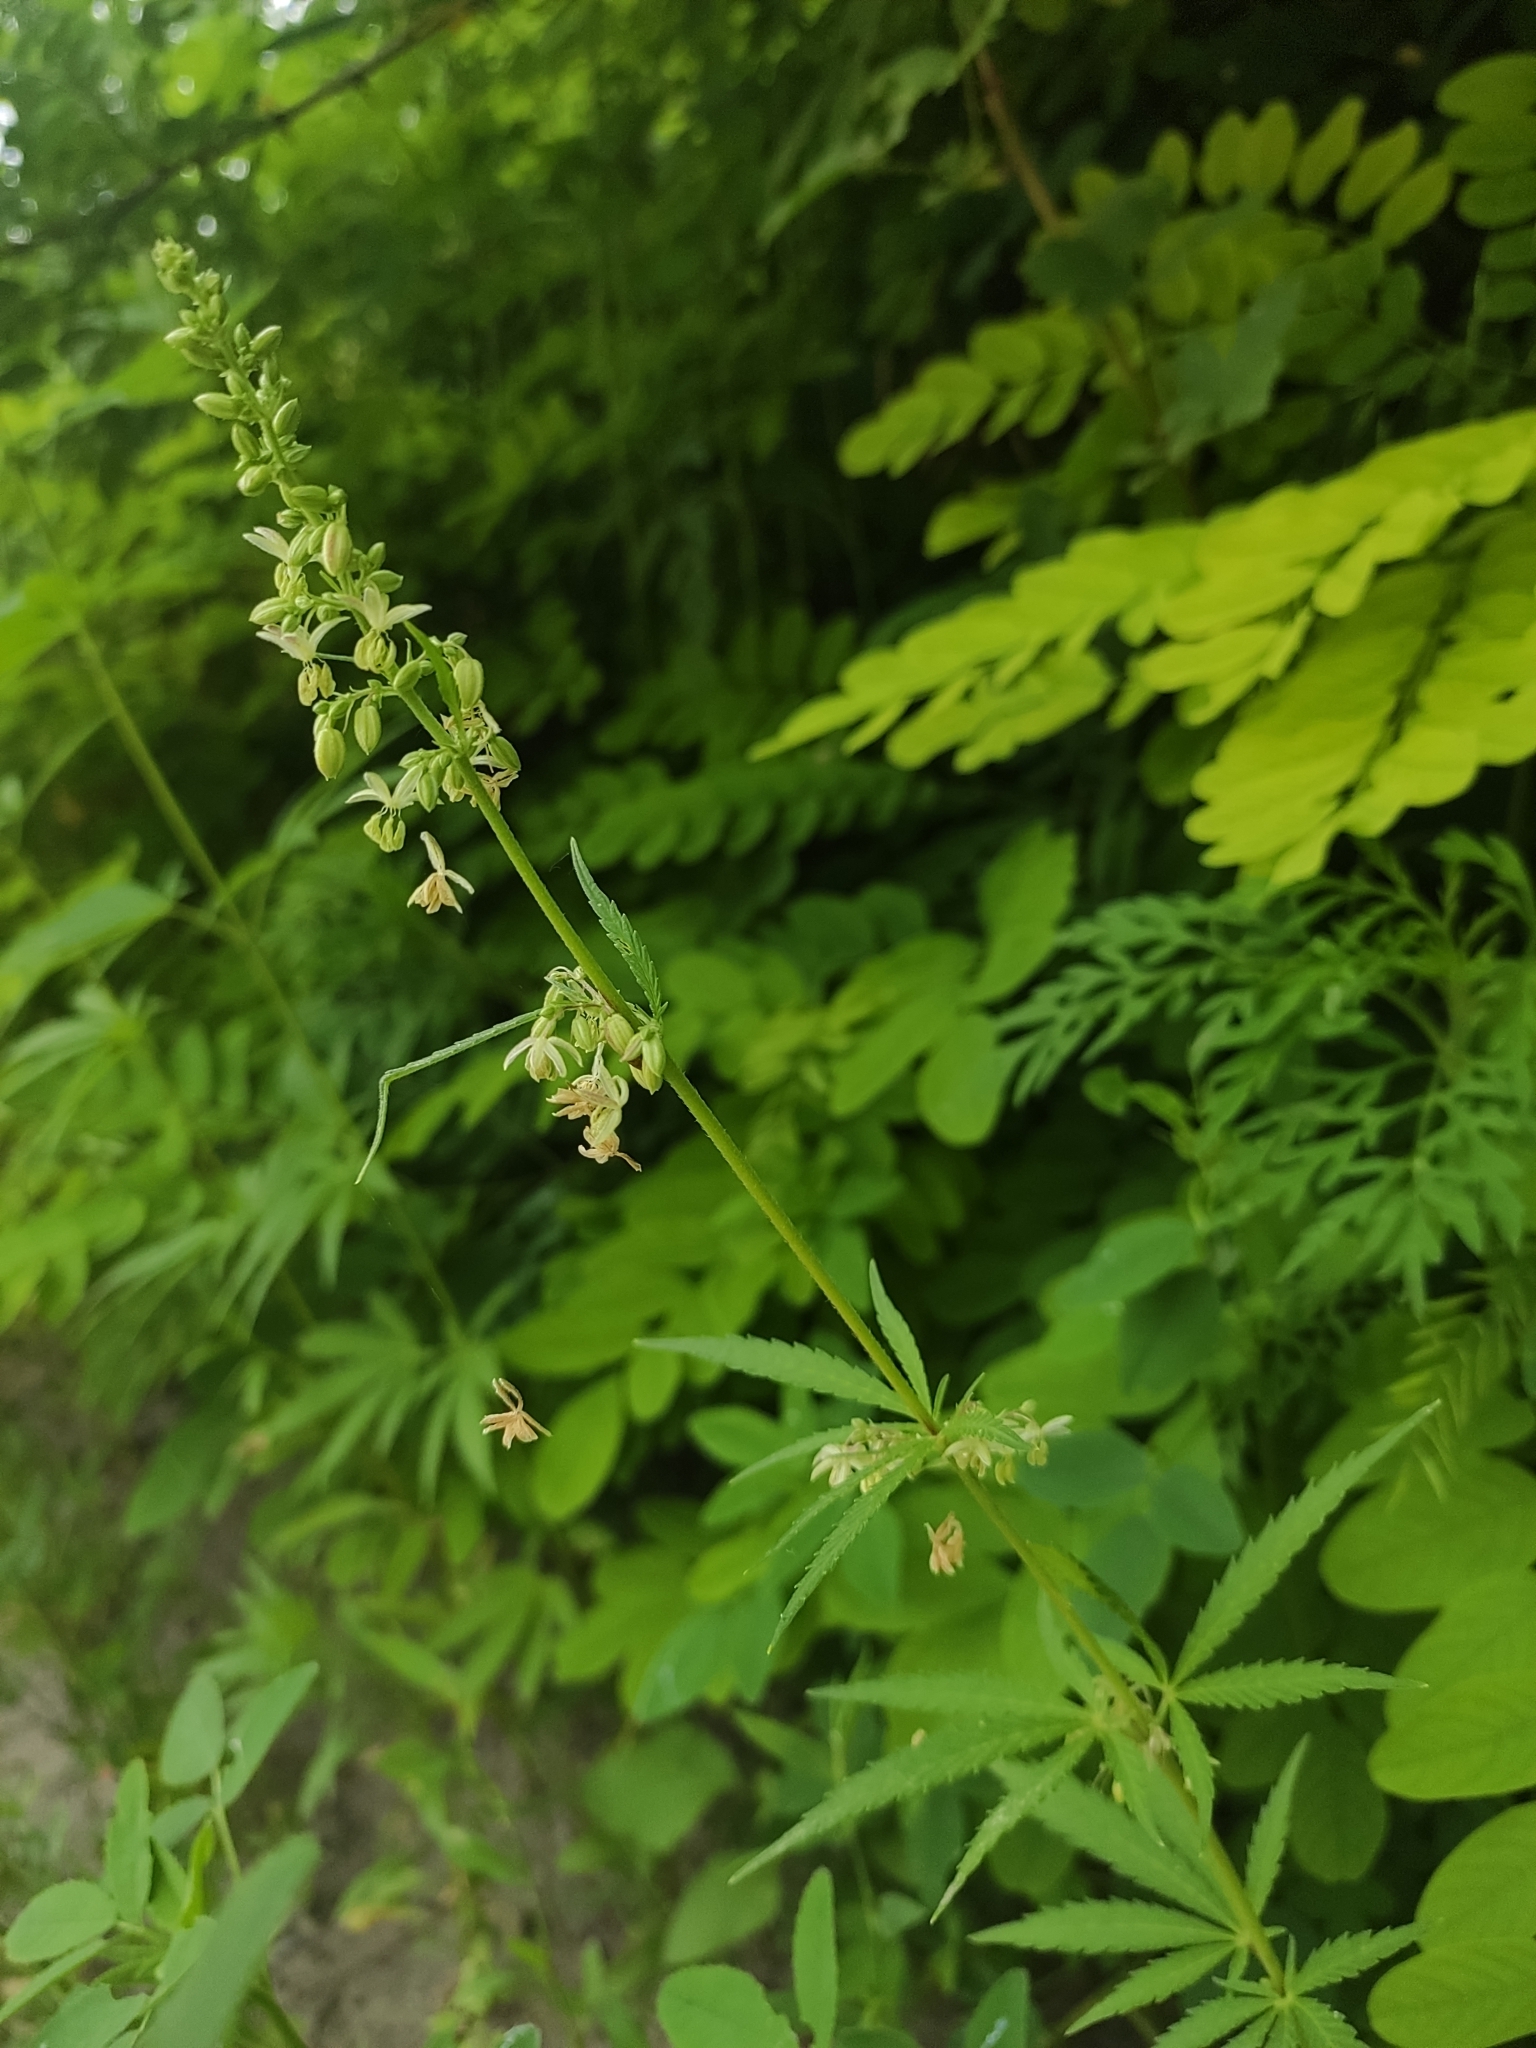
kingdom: Plantae
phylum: Tracheophyta
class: Magnoliopsida
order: Rosales
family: Cannabaceae
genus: Cannabis
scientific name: Cannabis sativa
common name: Hemp
